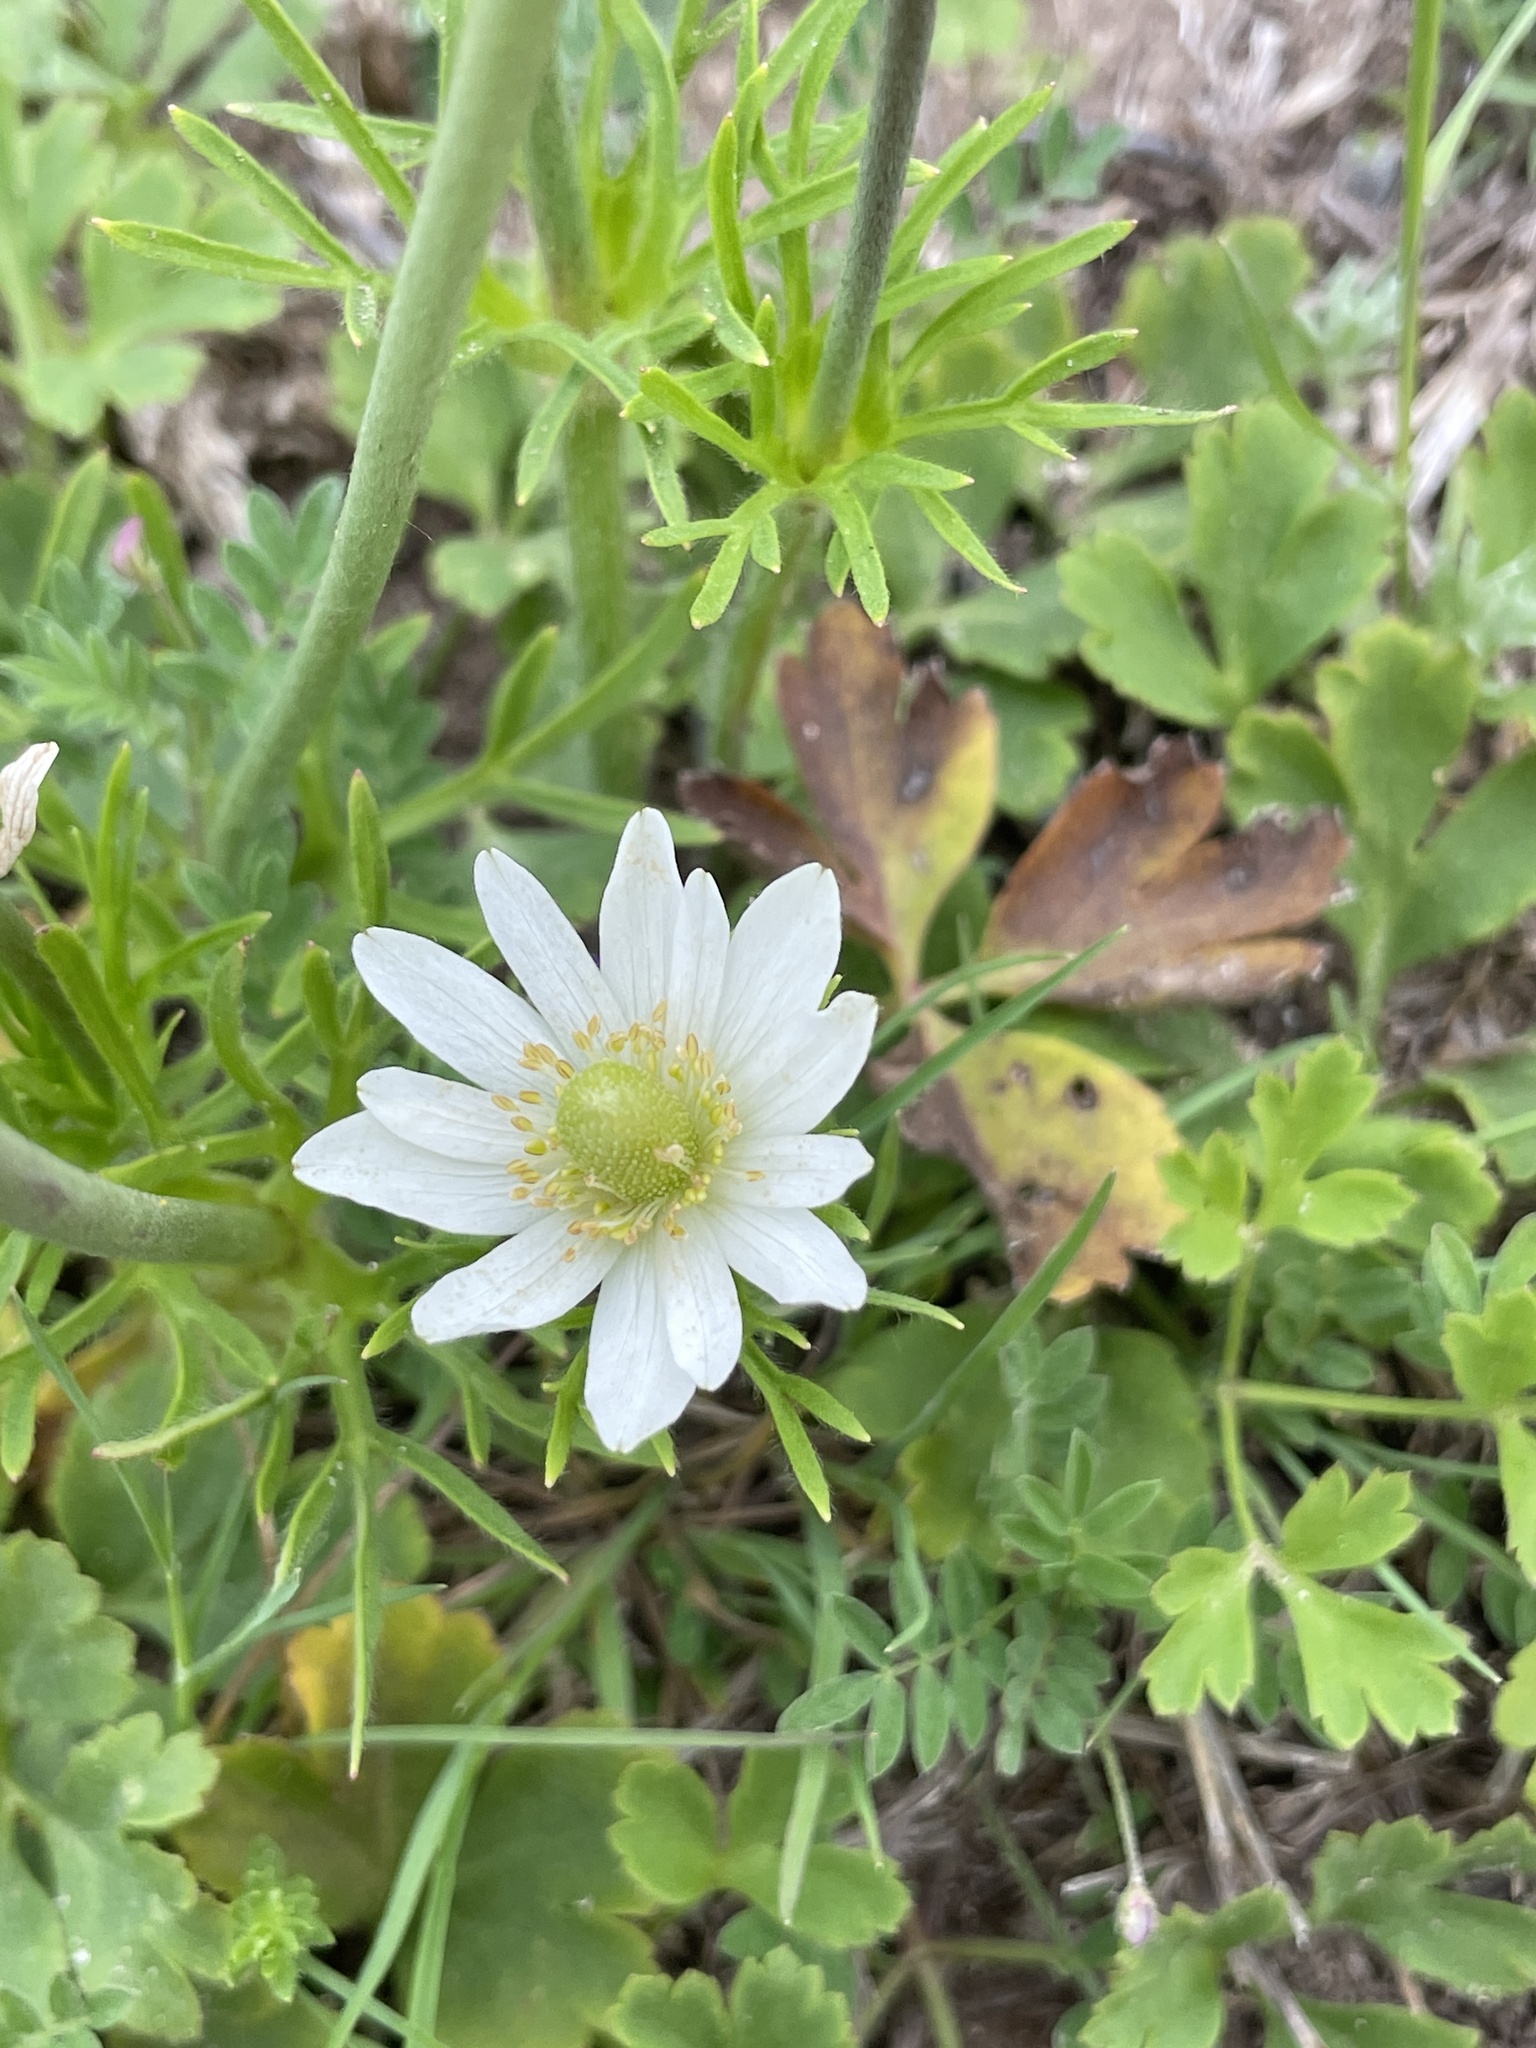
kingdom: Plantae
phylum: Tracheophyta
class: Magnoliopsida
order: Ranunculales
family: Ranunculaceae
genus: Anemone
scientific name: Anemone berlandieri
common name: Ten-petal anemone
